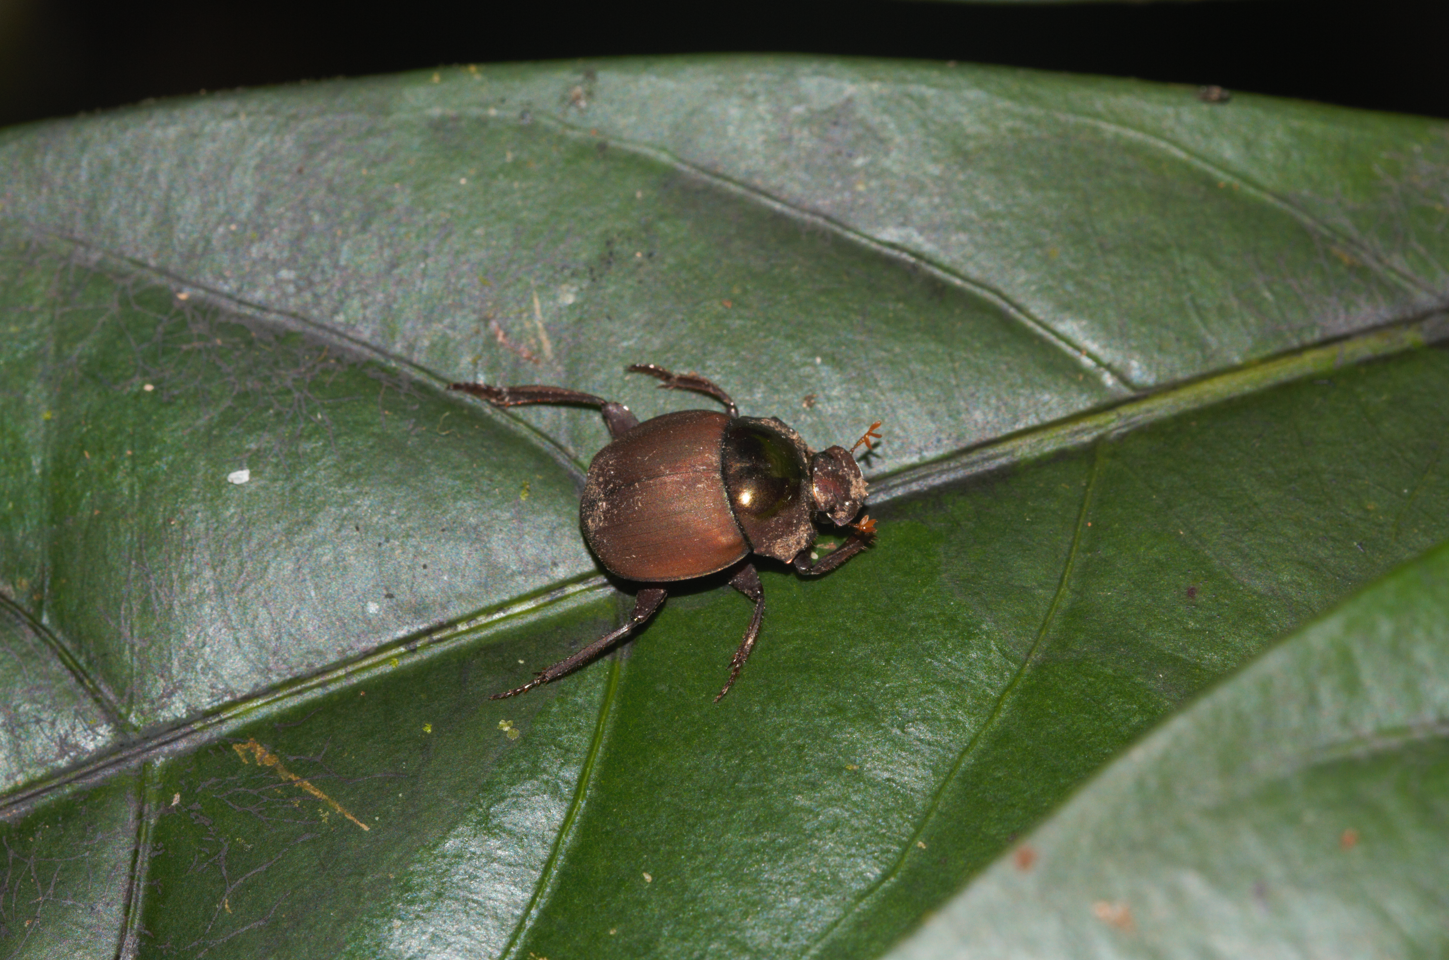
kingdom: Animalia
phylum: Arthropoda
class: Insecta
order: Coleoptera
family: Scarabaeidae
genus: Hansreia
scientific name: Hansreia affinis
